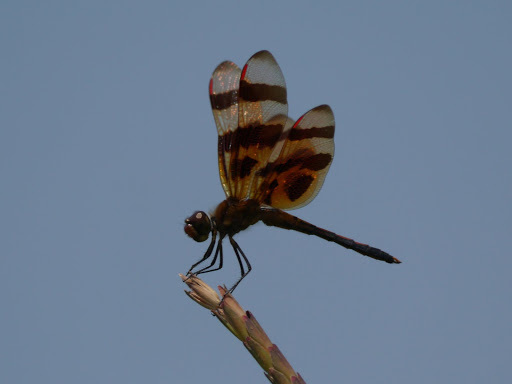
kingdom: Animalia
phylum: Arthropoda
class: Insecta
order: Odonata
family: Libellulidae
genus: Celithemis
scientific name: Celithemis eponina
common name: Halloween pennant
